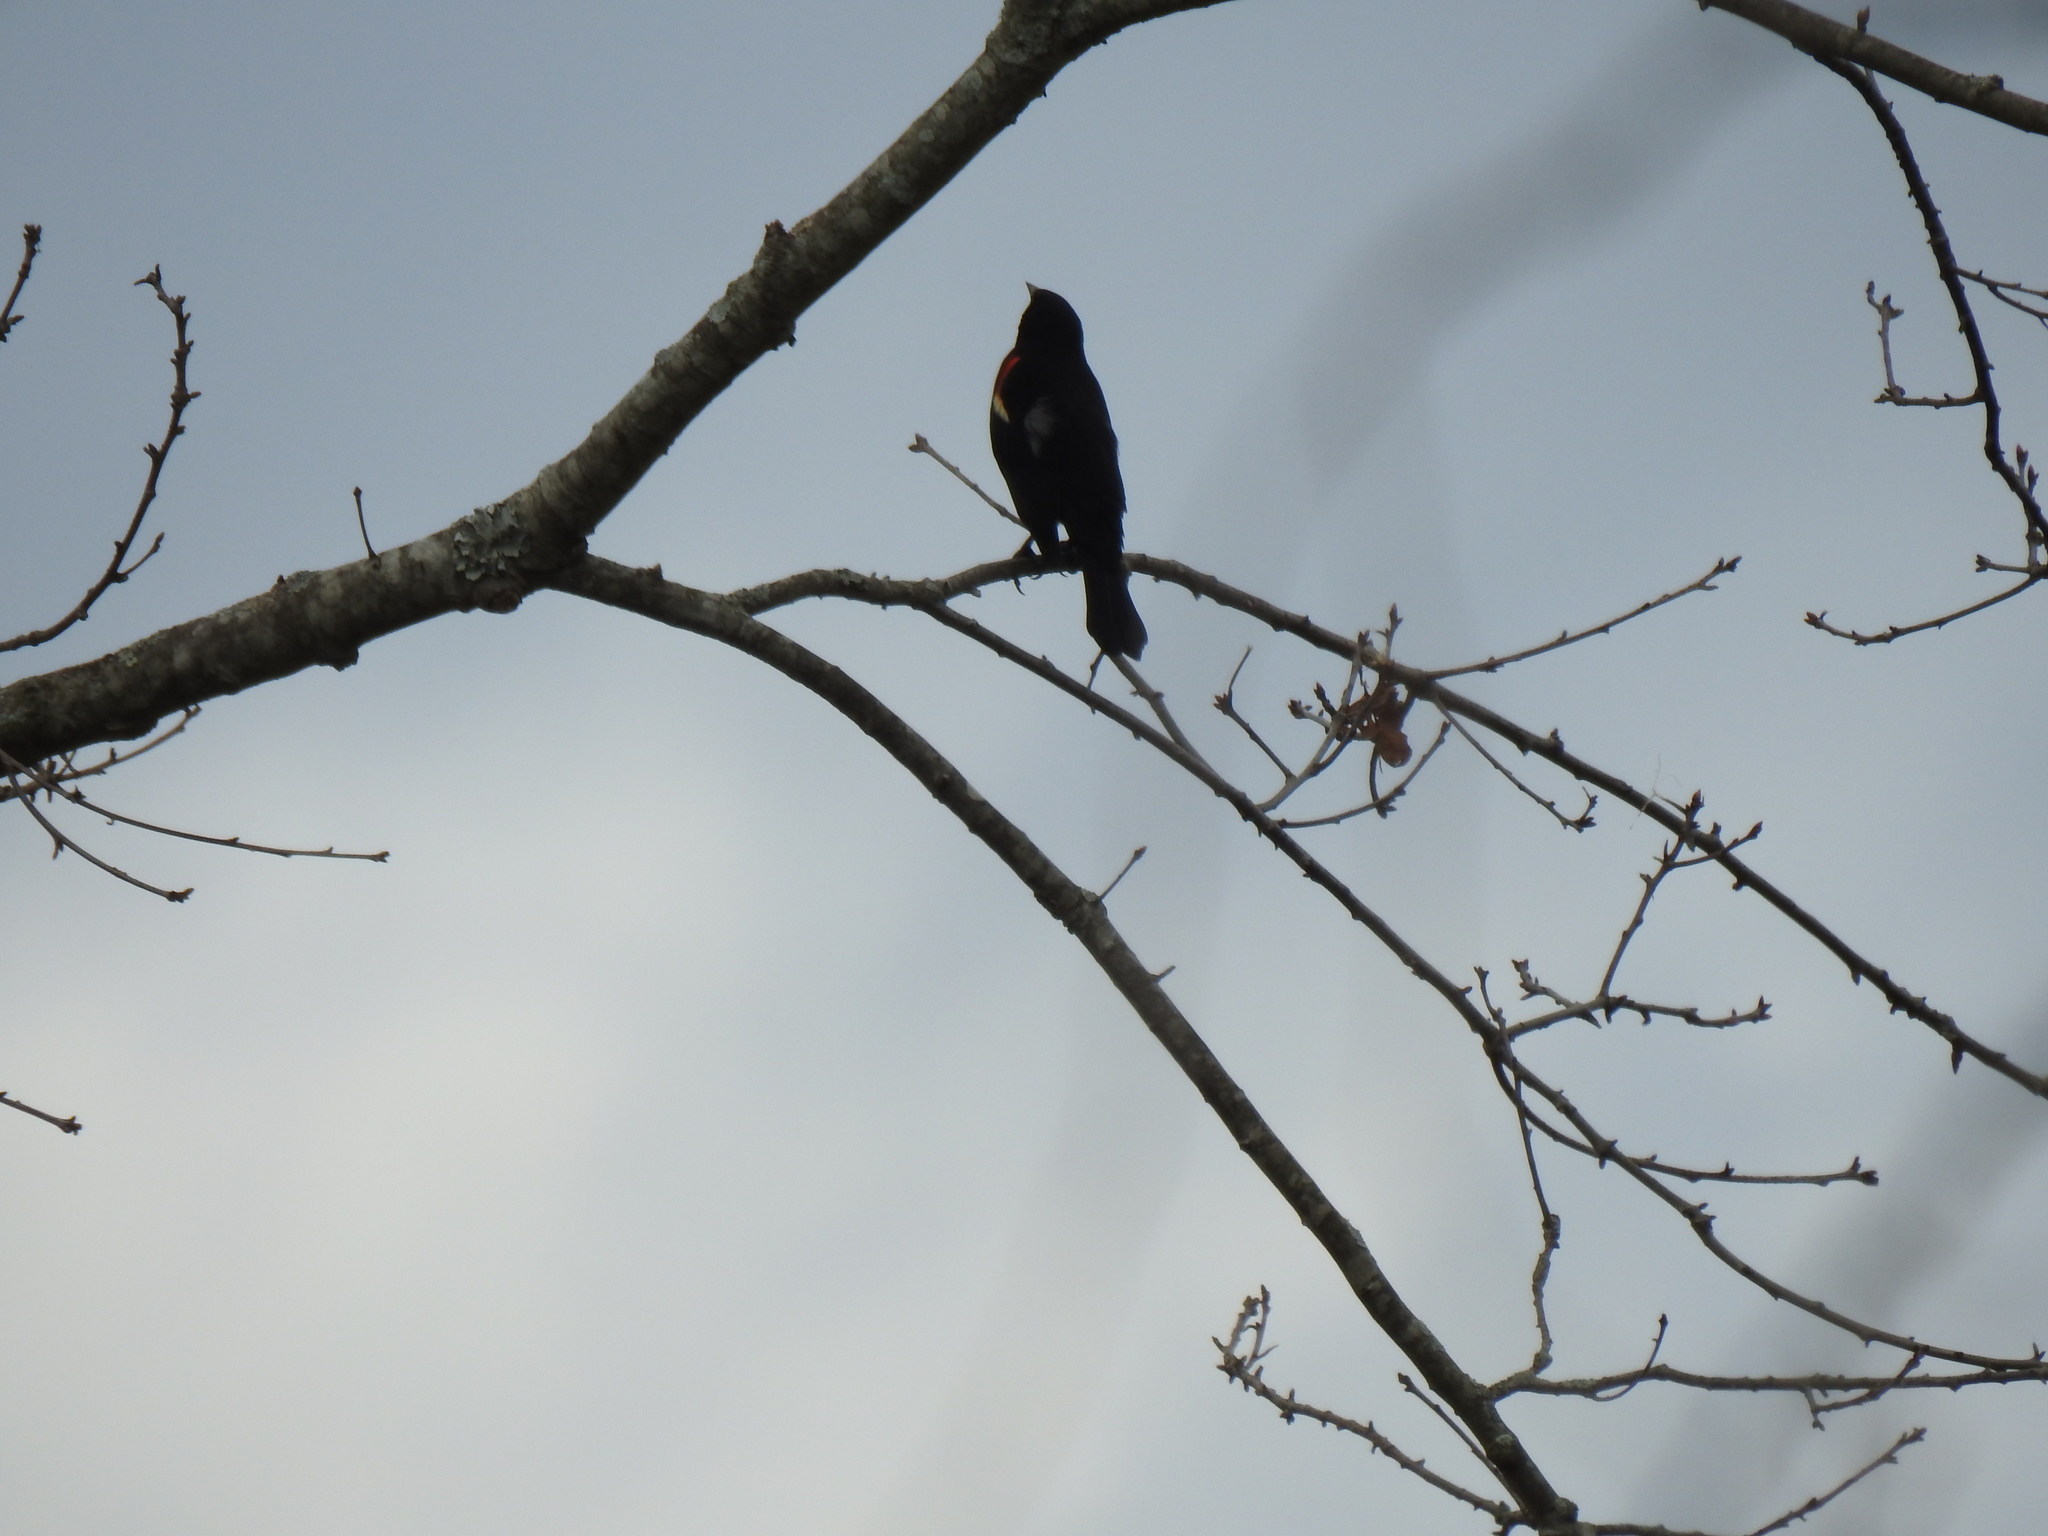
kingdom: Animalia
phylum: Chordata
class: Aves
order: Passeriformes
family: Icteridae
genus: Agelaius
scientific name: Agelaius phoeniceus
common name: Red-winged blackbird
